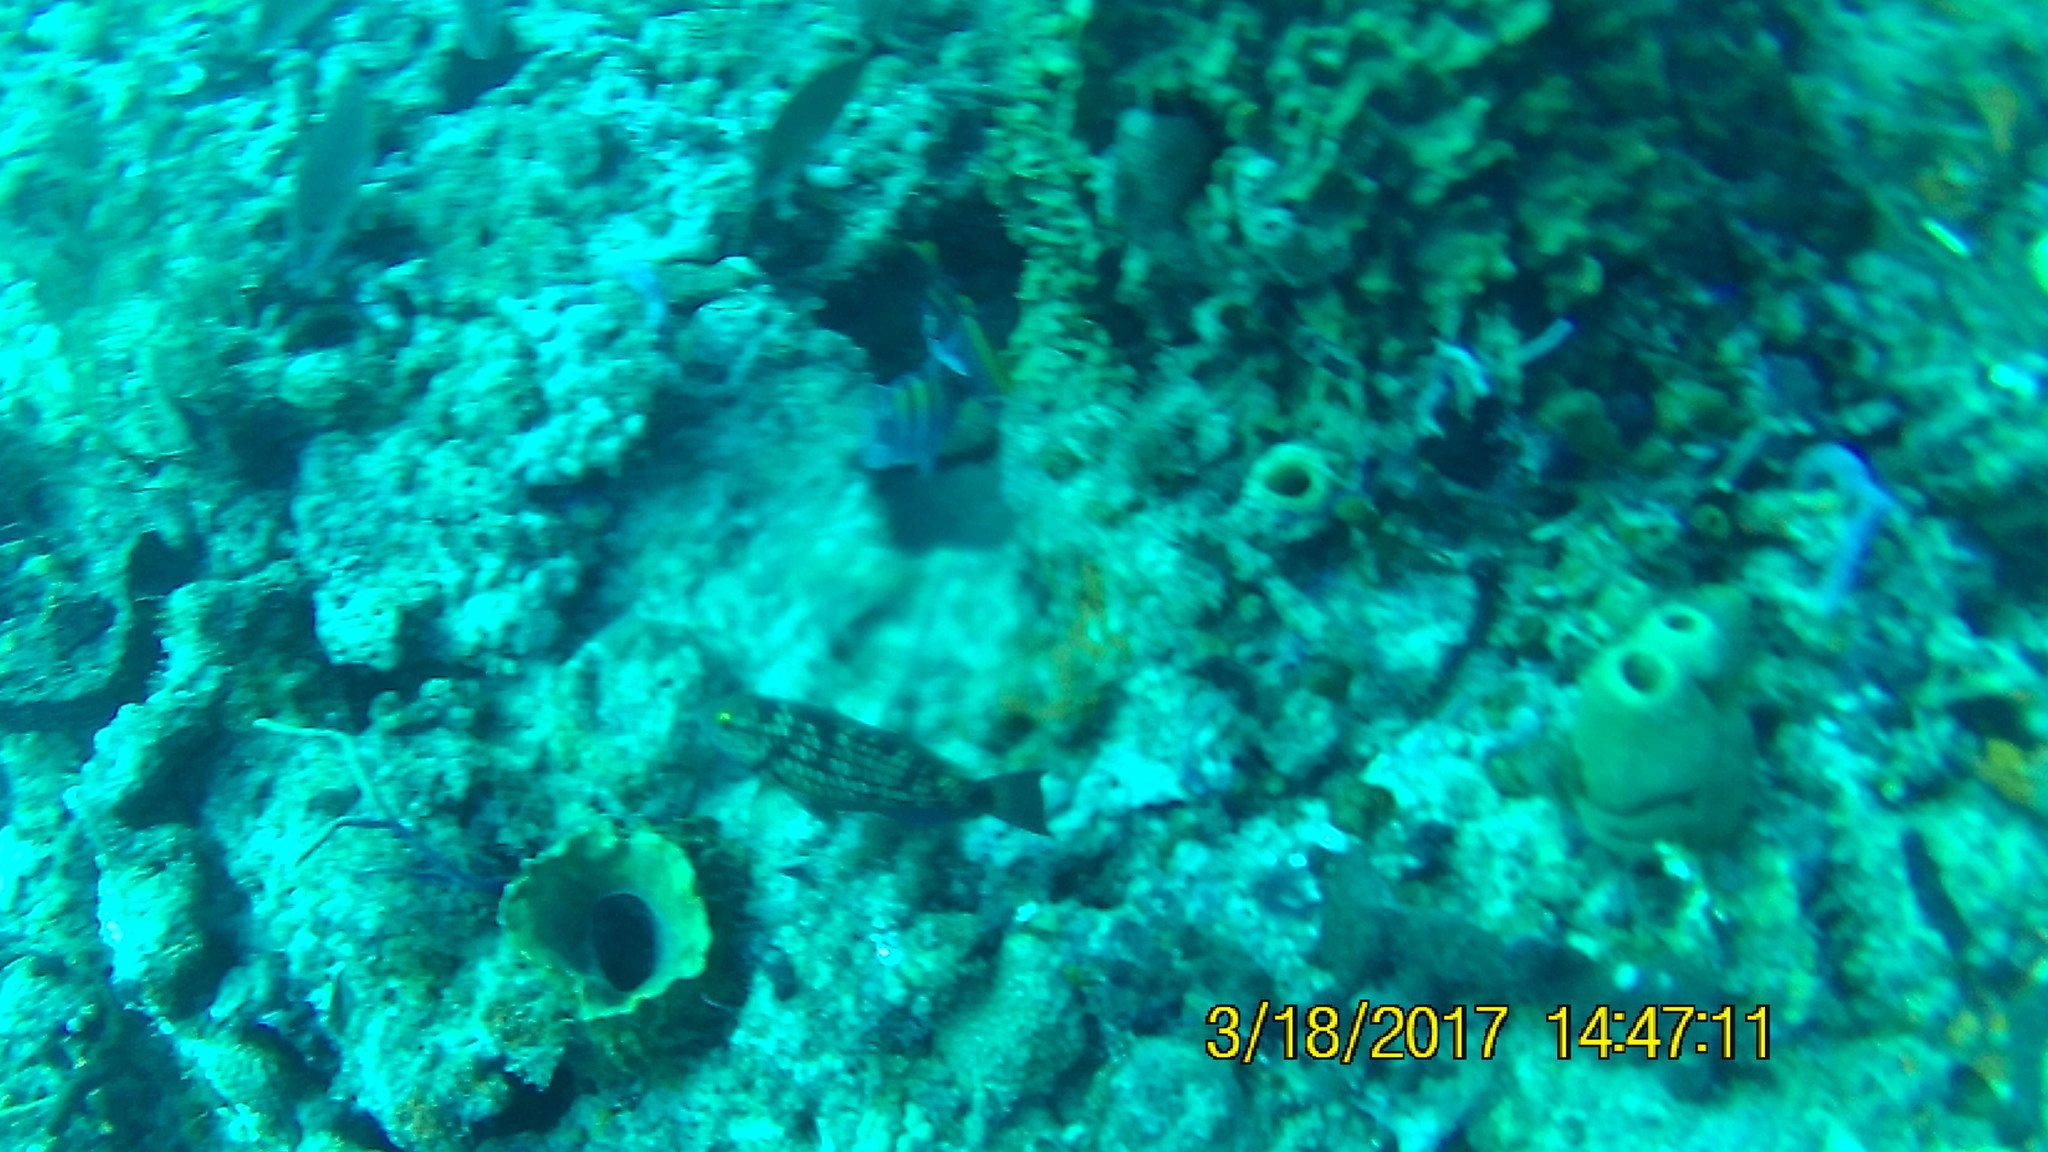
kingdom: Animalia
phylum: Chordata
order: Perciformes
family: Scaridae
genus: Sparisoma
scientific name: Sparisoma viride
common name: Stoplight parrotfish
